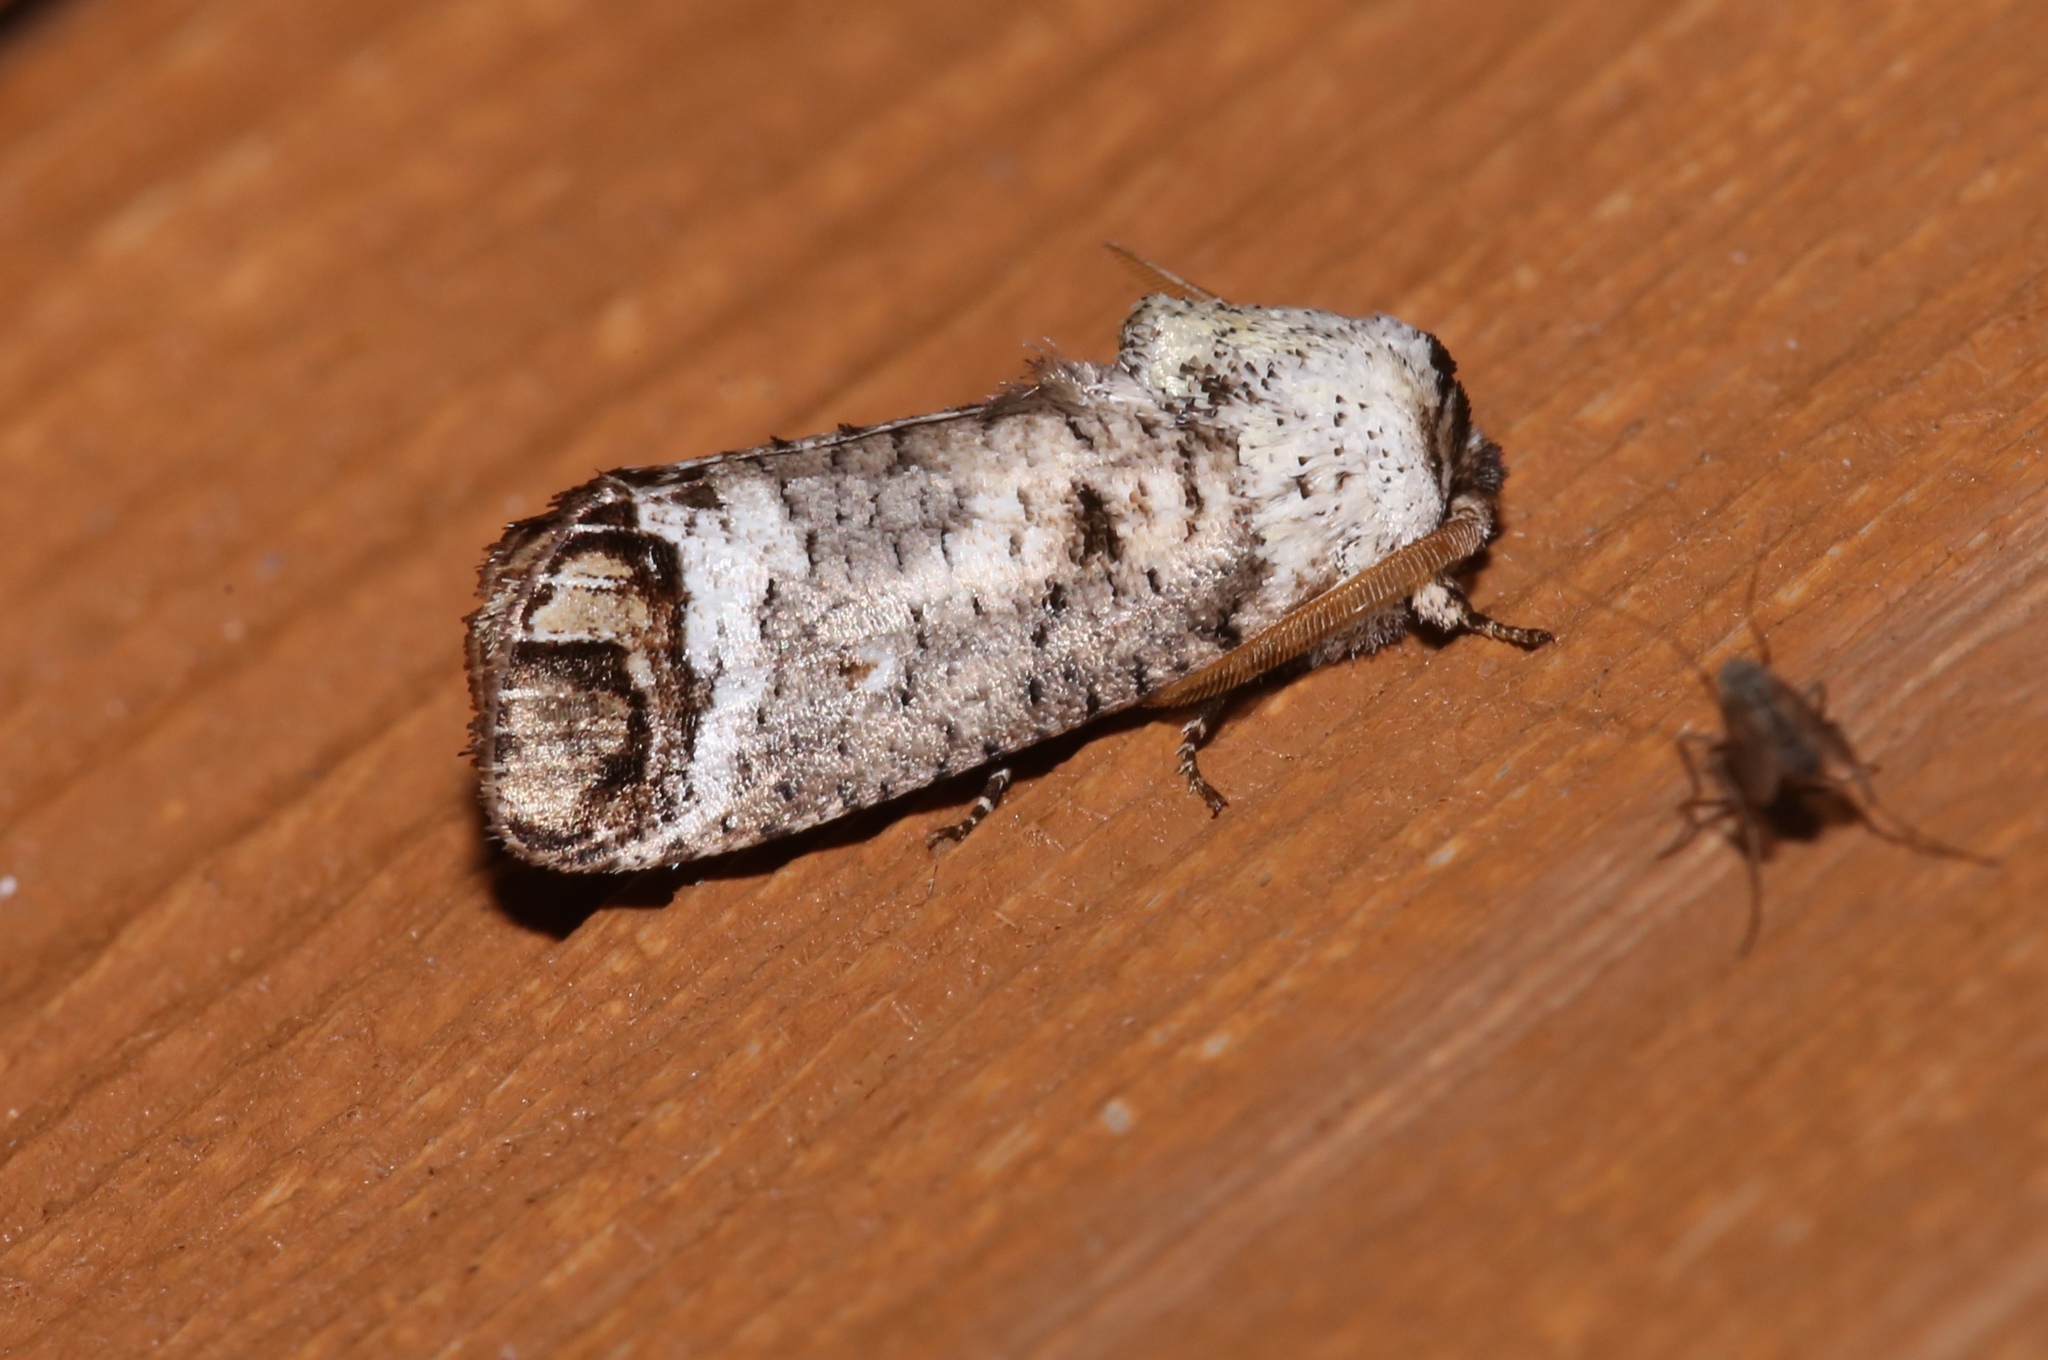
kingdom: Animalia
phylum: Arthropoda
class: Insecta
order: Lepidoptera
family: Cossidae
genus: Cossula
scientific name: Cossula magnifica
